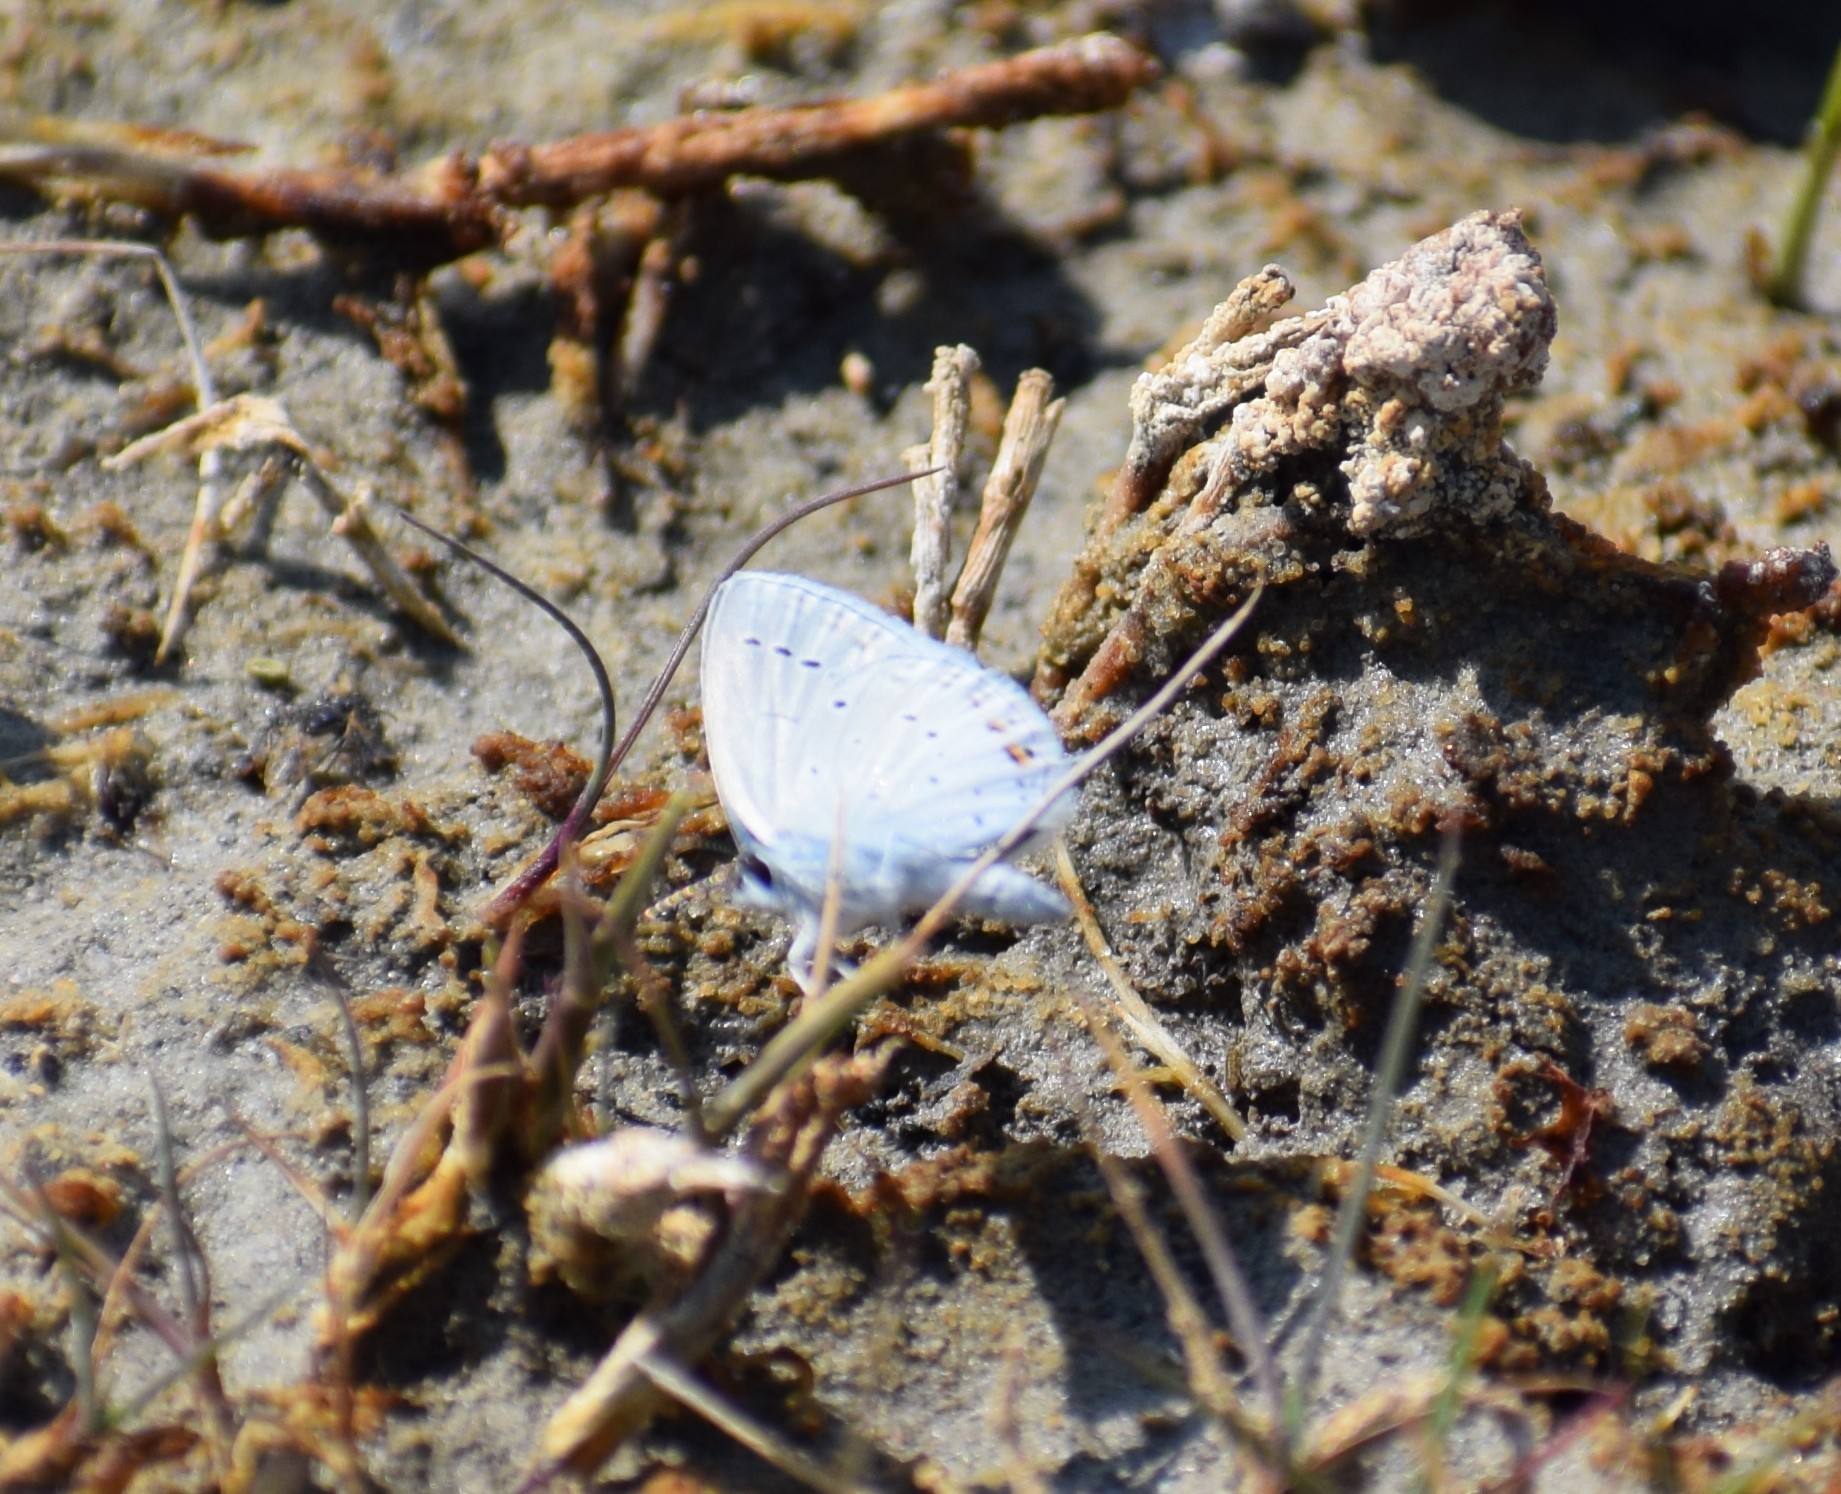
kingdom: Animalia
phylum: Arthropoda
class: Insecta
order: Lepidoptera
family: Lycaenidae
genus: Elkalyce
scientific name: Elkalyce argiades
